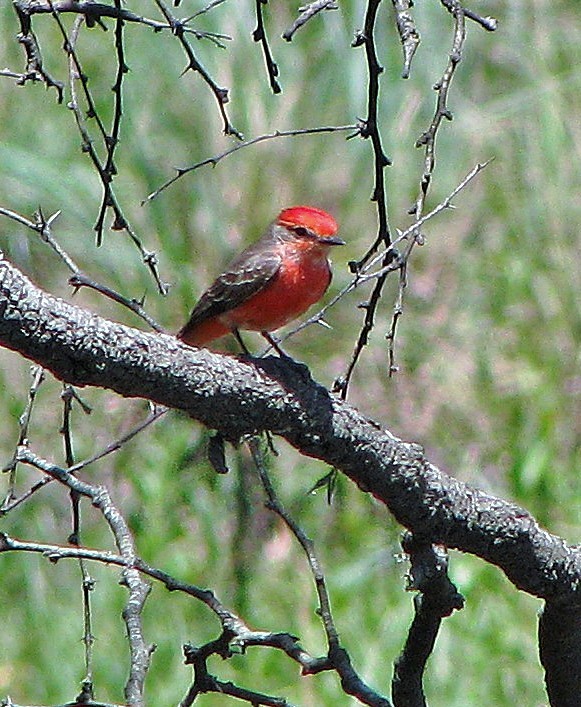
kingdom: Animalia
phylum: Chordata
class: Aves
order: Passeriformes
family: Tyrannidae
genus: Pyrocephalus
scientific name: Pyrocephalus rubinus
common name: Vermilion flycatcher
